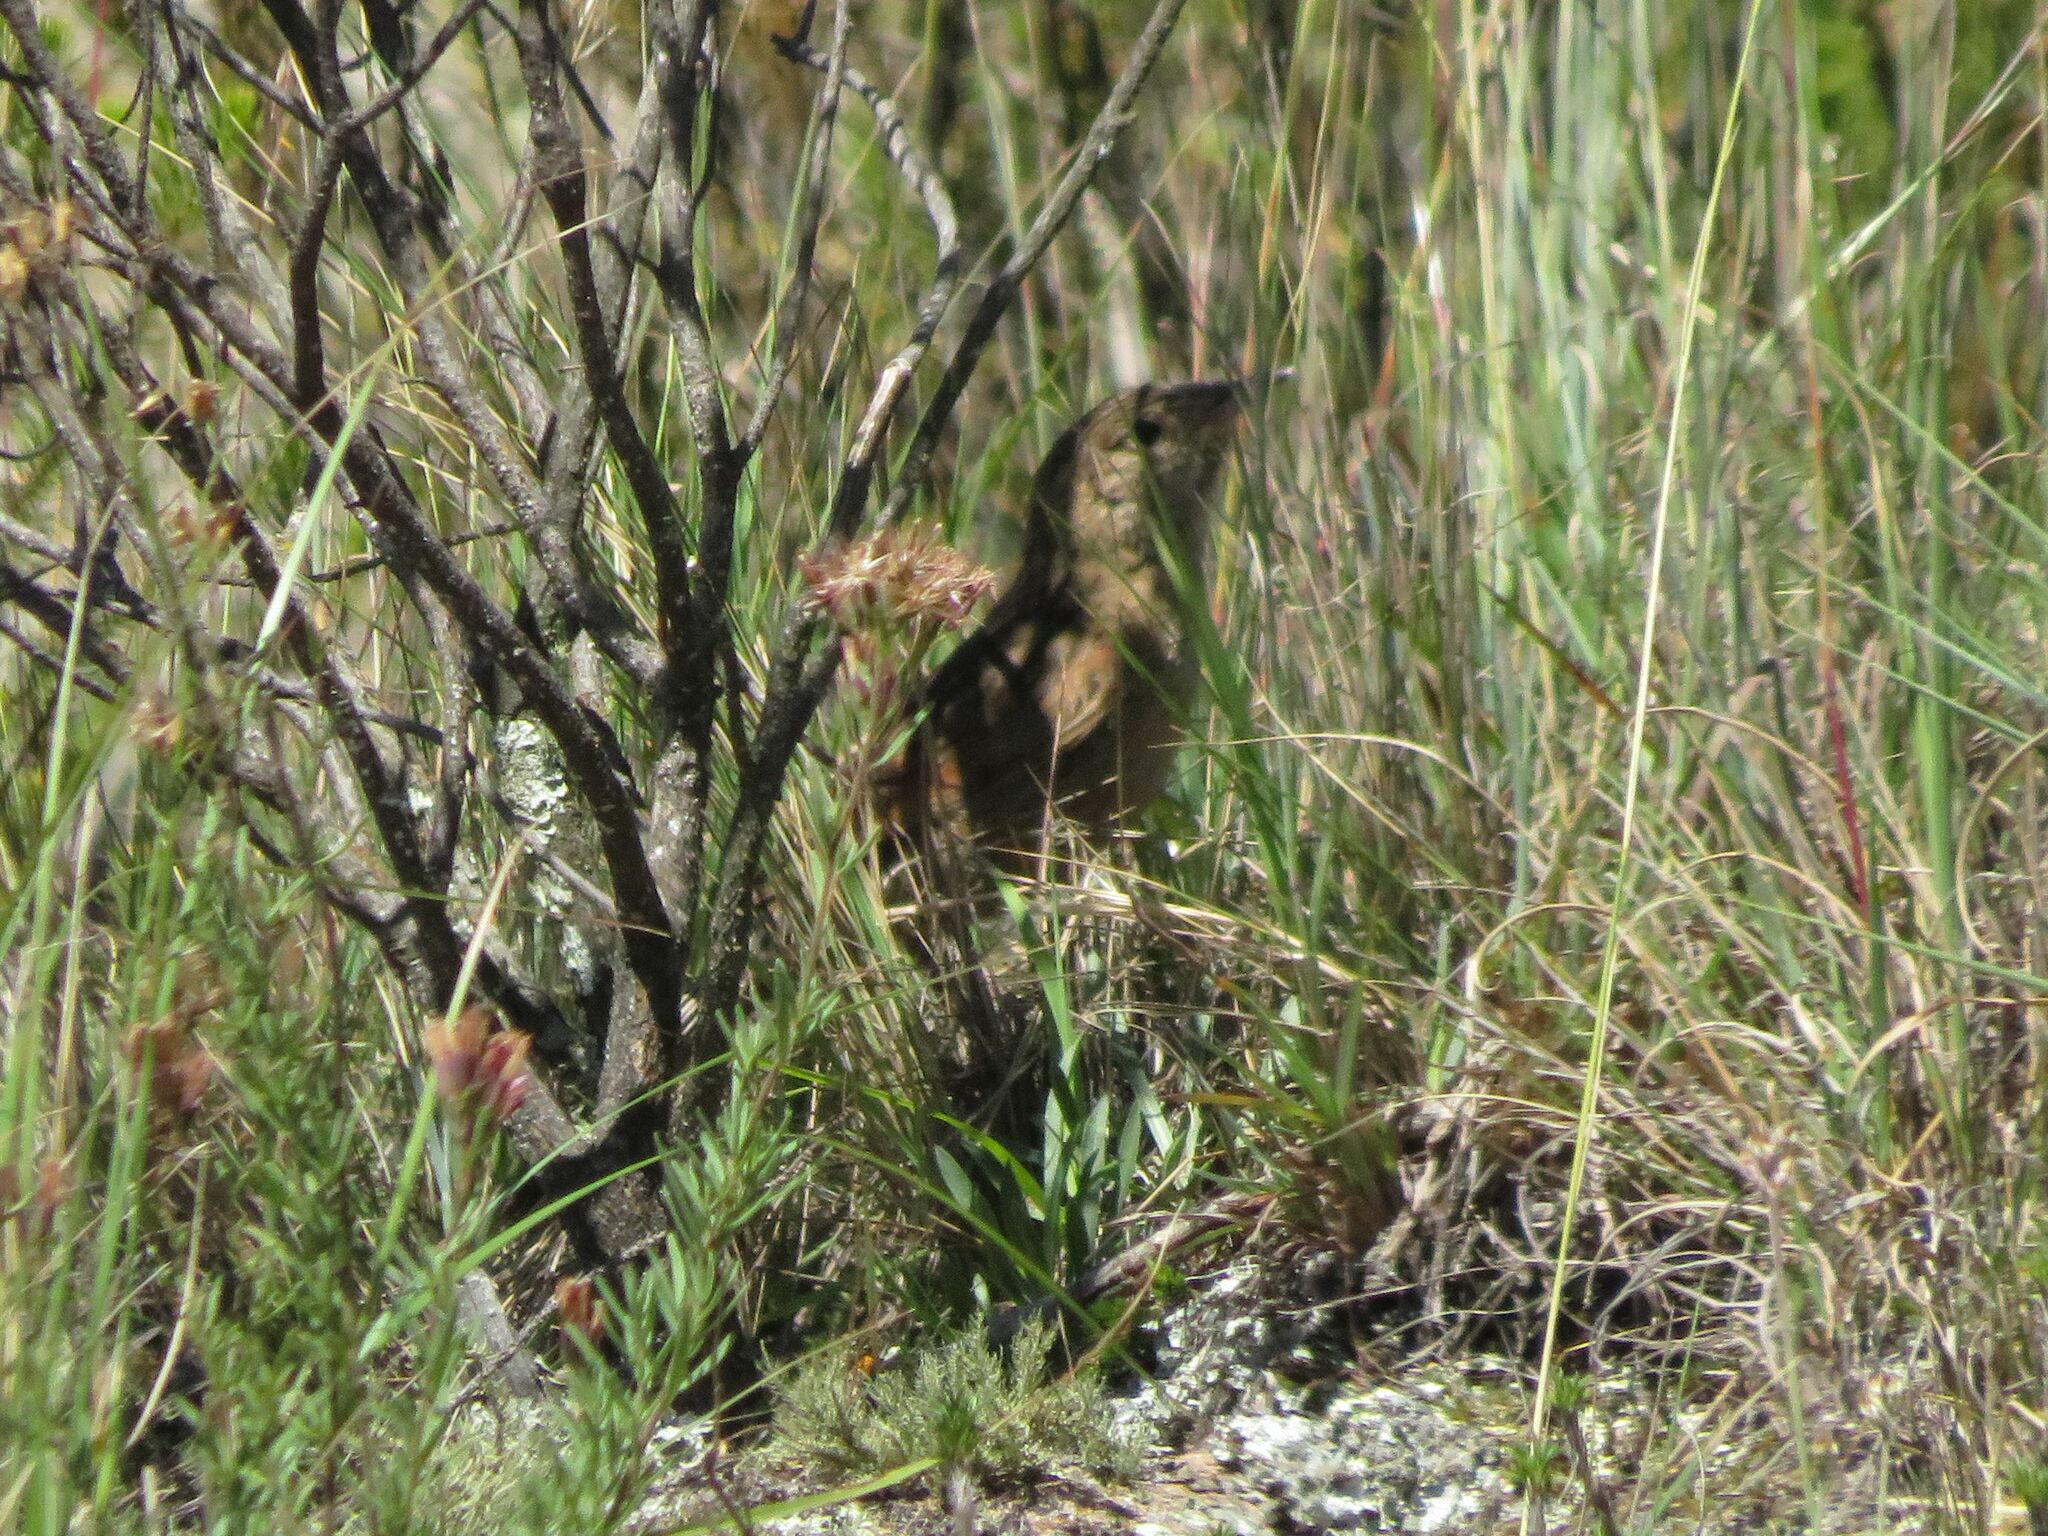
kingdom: Animalia
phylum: Chordata
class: Aves
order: Passeriformes
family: Troglodytidae
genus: Cistothorus
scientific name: Cistothorus platensis
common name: Sedge wren
